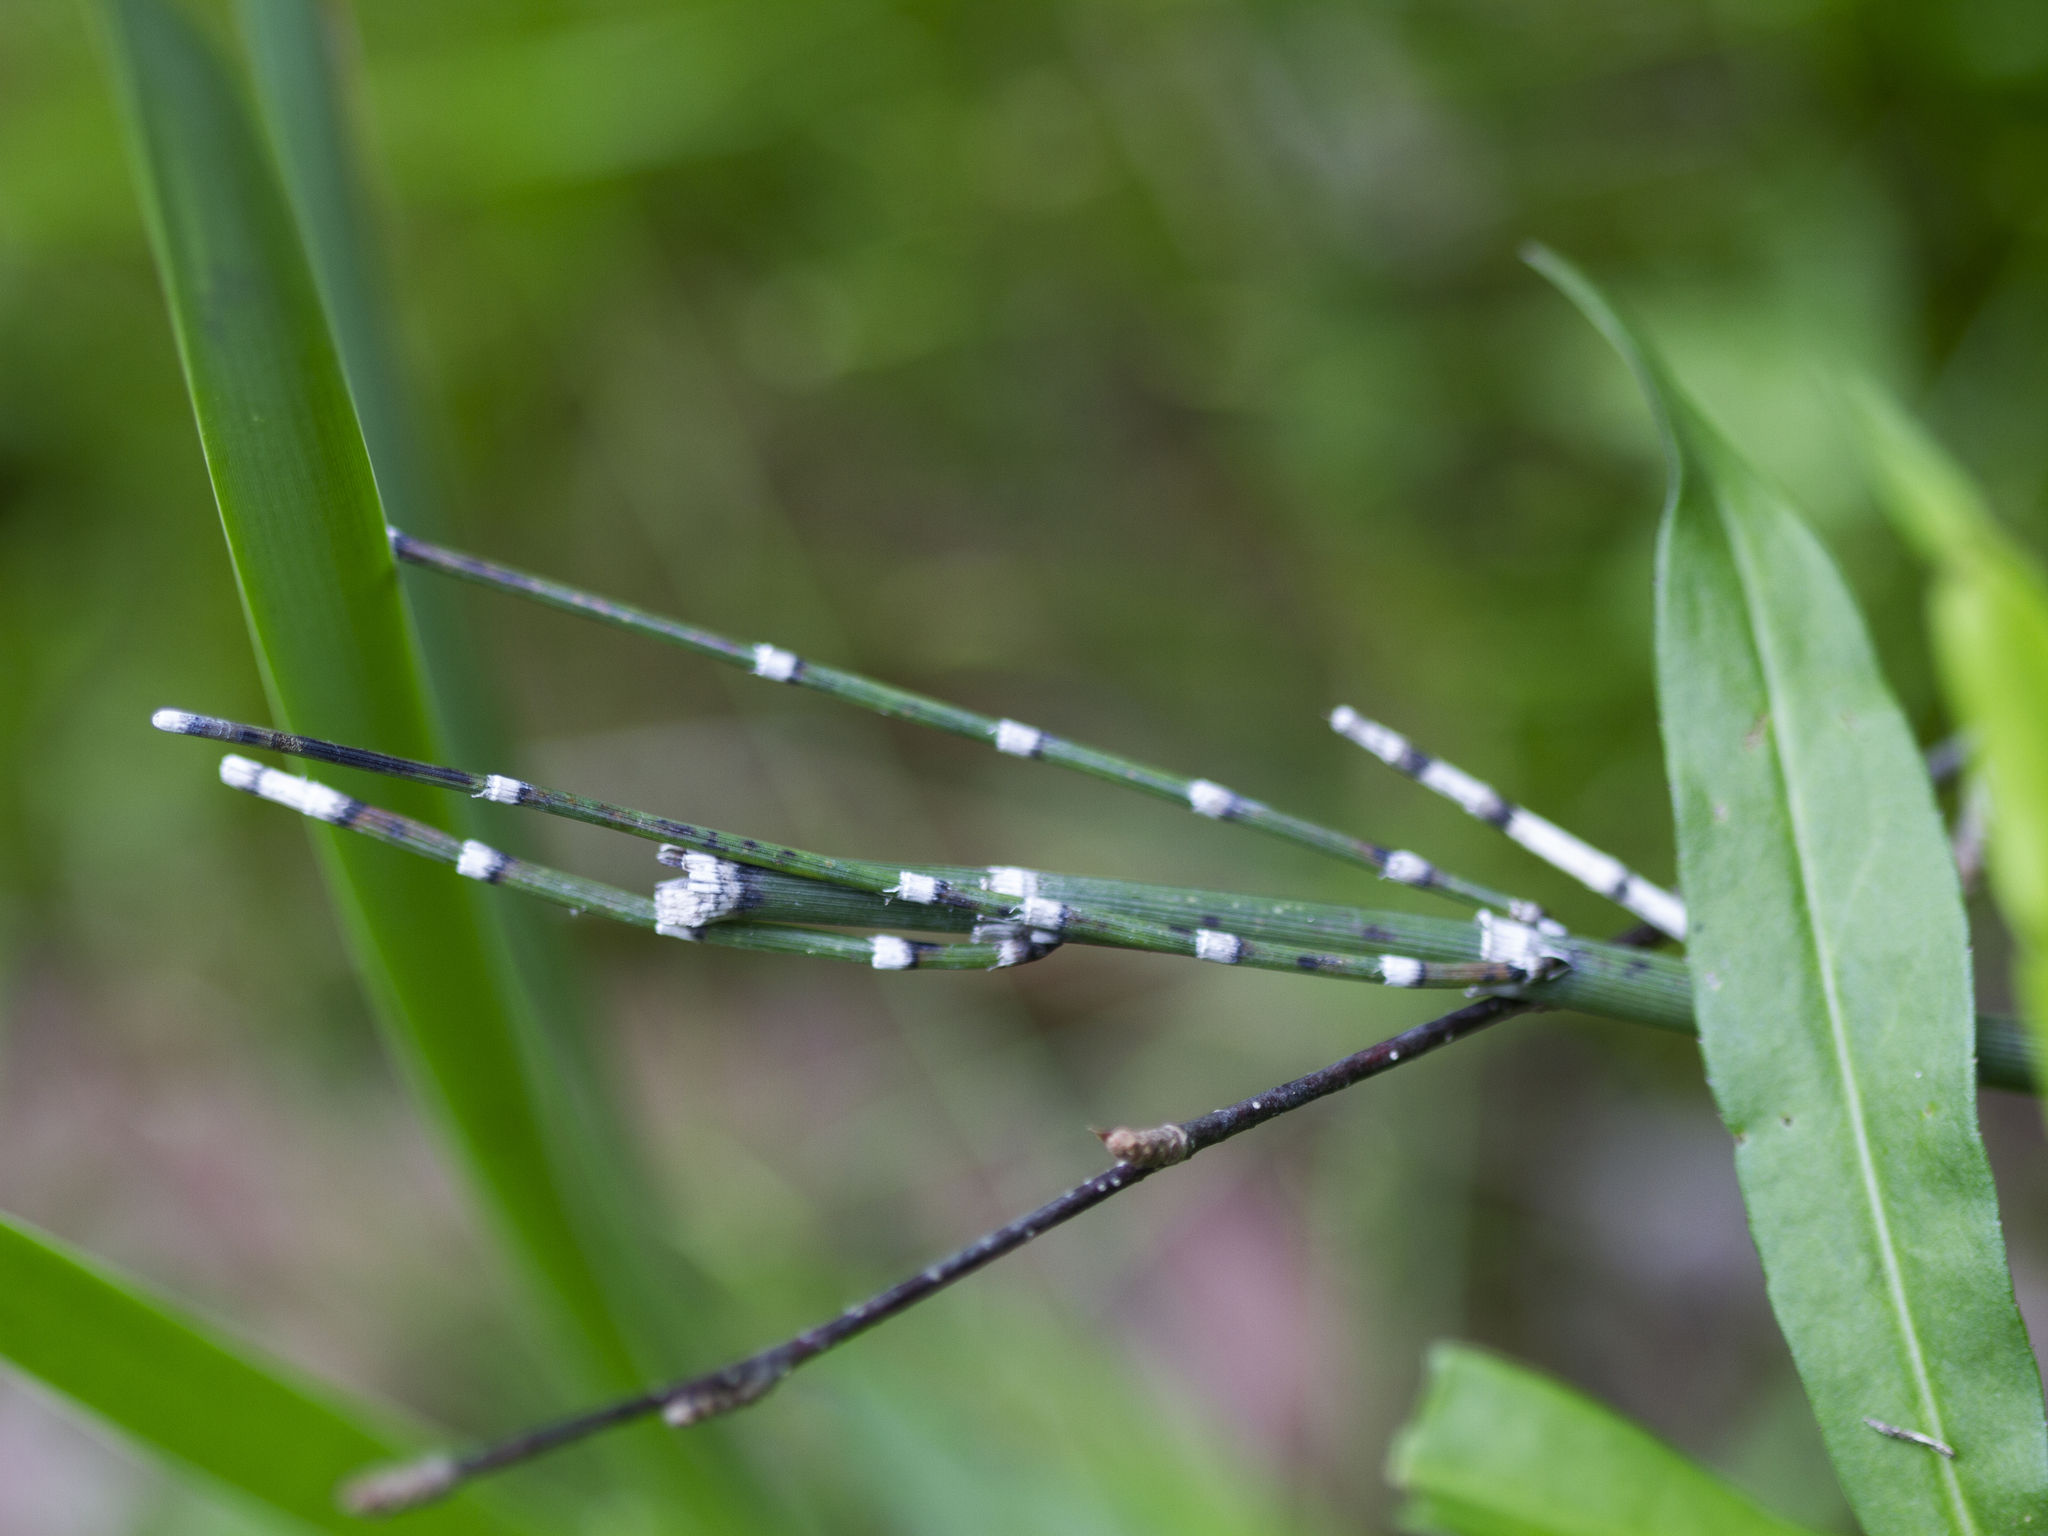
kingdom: Plantae
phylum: Tracheophyta
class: Polypodiopsida
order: Equisetales
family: Equisetaceae
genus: Equisetum
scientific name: Equisetum hyemale
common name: Rough horsetail
